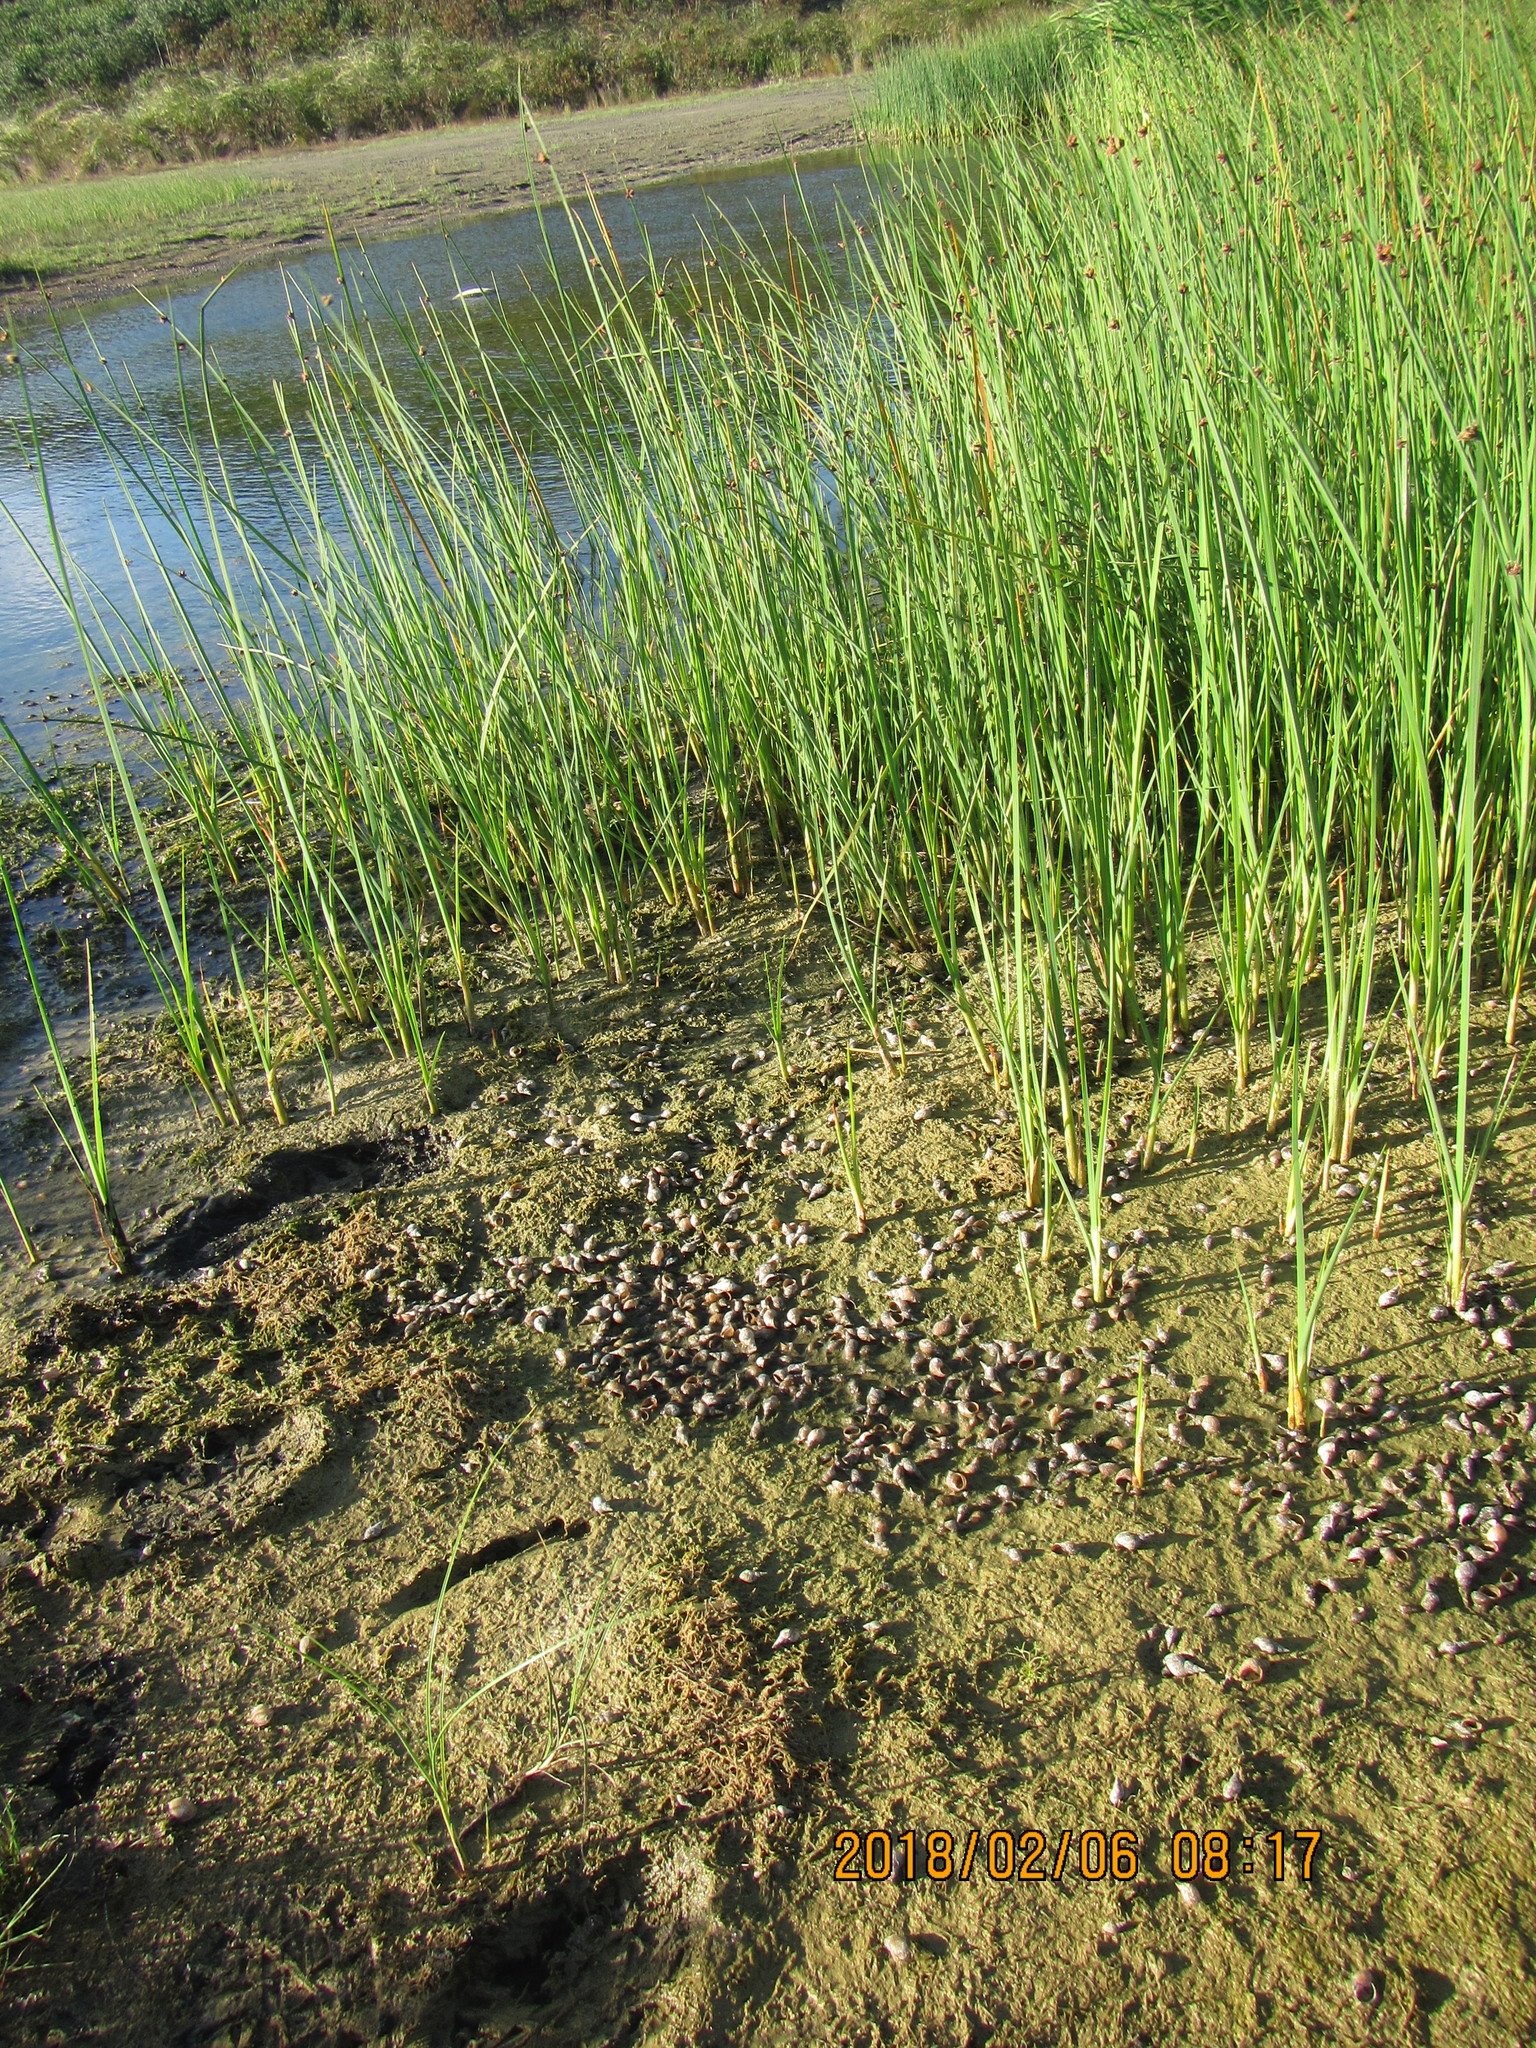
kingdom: Animalia
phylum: Mollusca
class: Gastropoda
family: Lymnaeidae
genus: Lymnaea
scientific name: Lymnaea stagnalis
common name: Great pond snail
